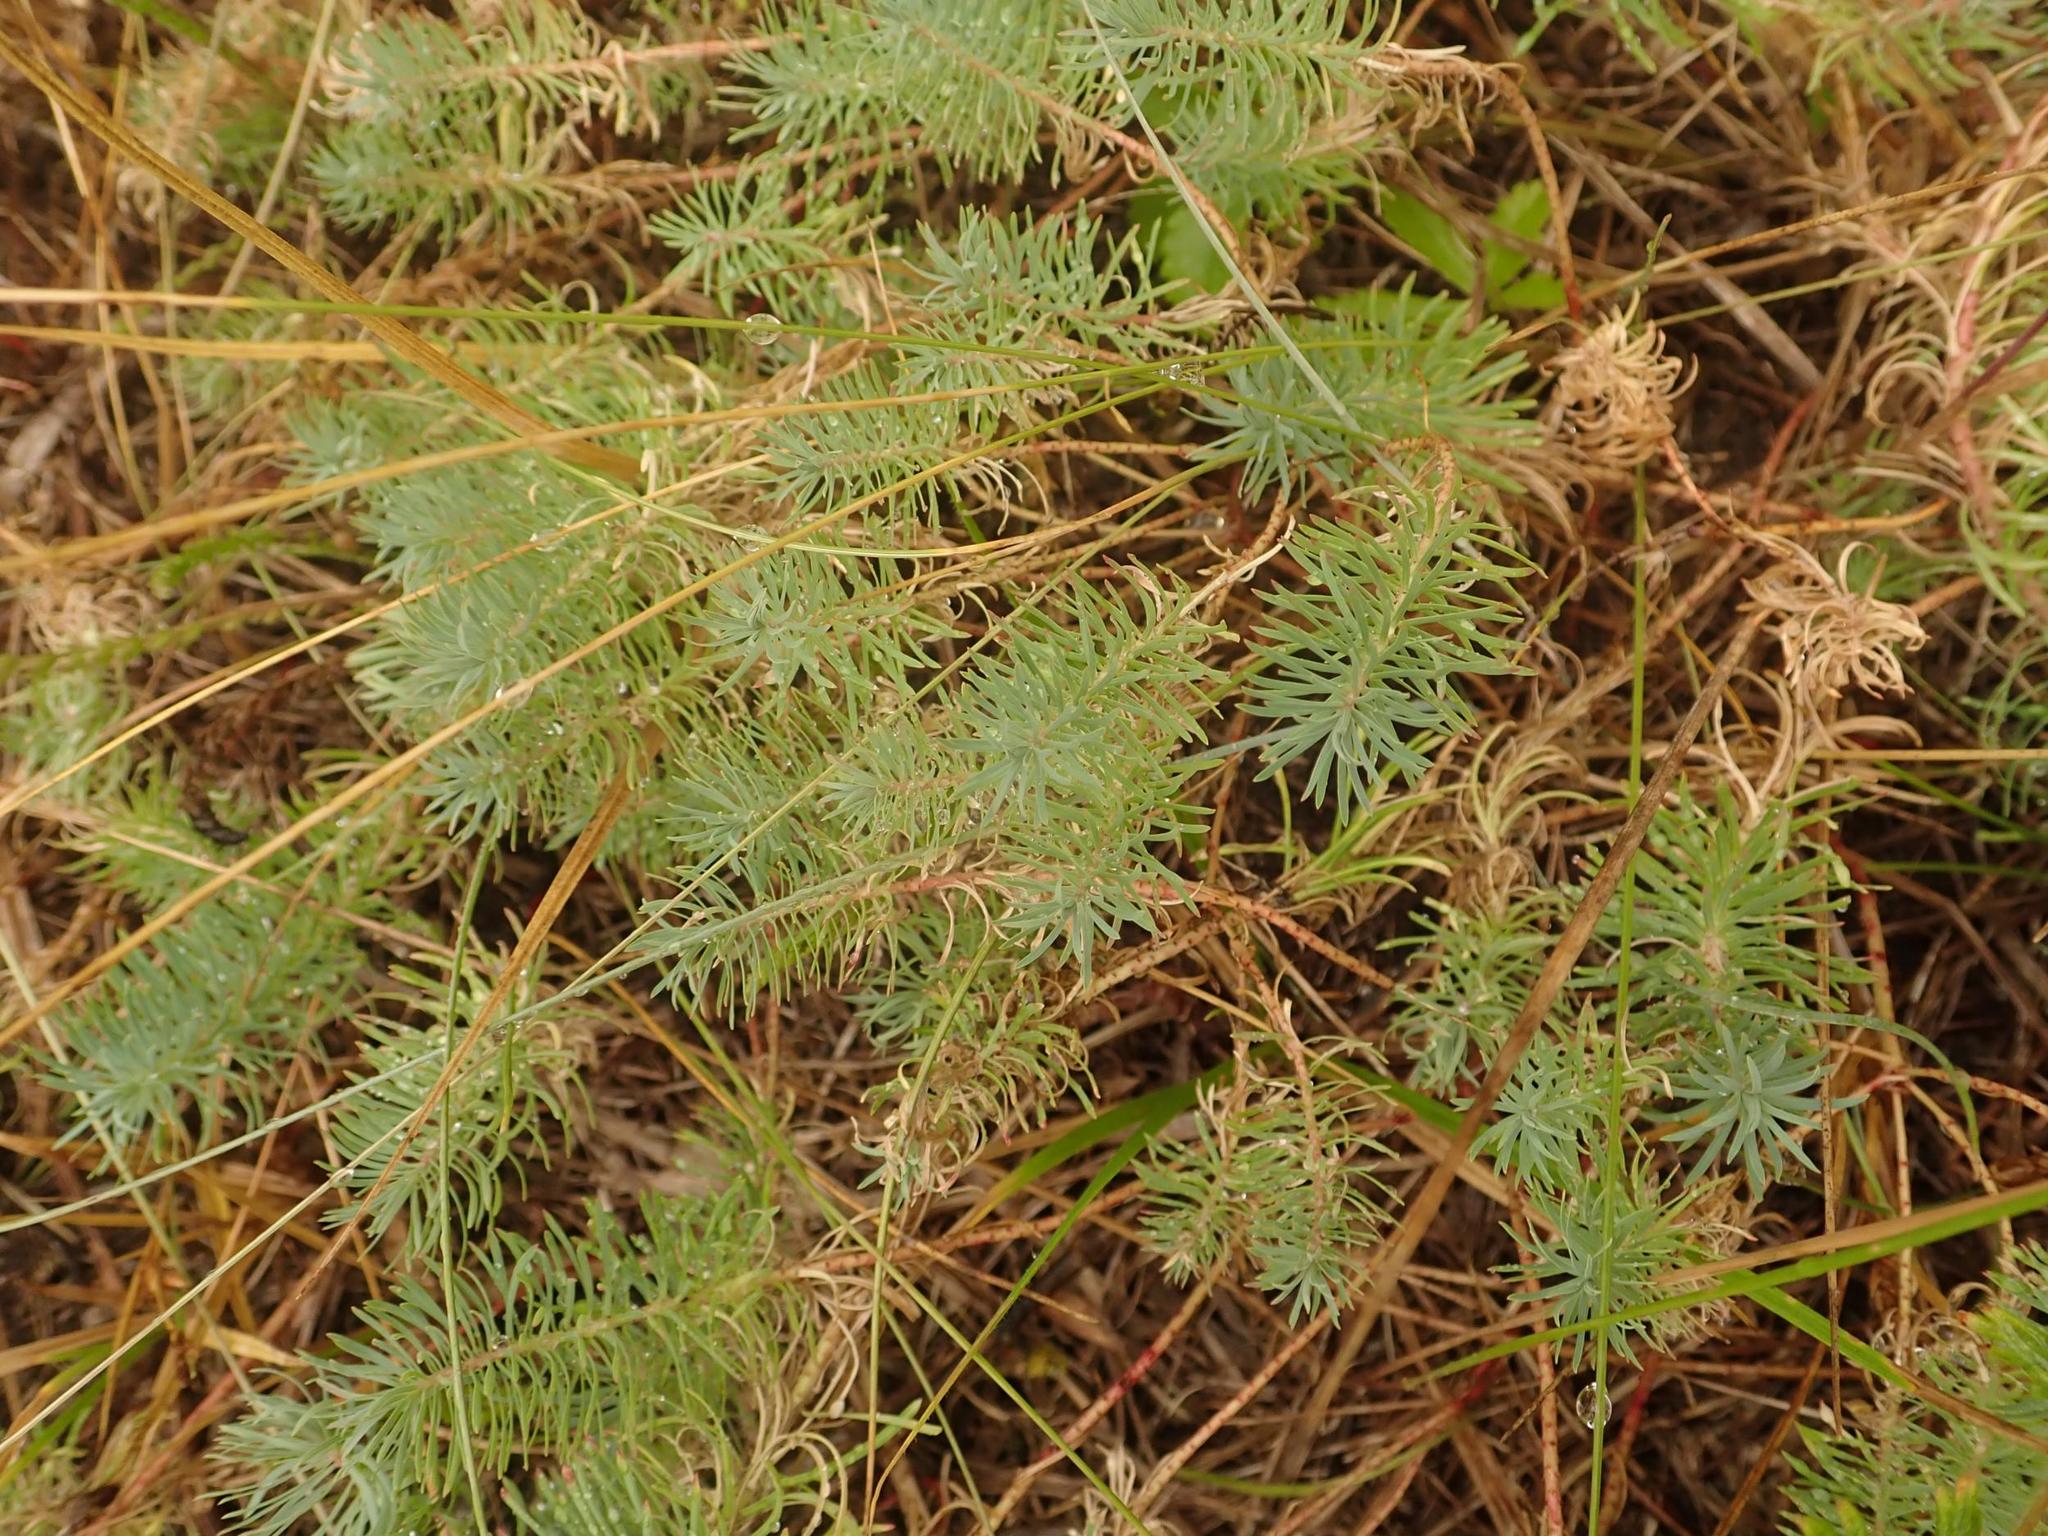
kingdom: Plantae
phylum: Tracheophyta
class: Magnoliopsida
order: Malpighiales
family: Euphorbiaceae
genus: Euphorbia
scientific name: Euphorbia cyparissias
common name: Cypress spurge
